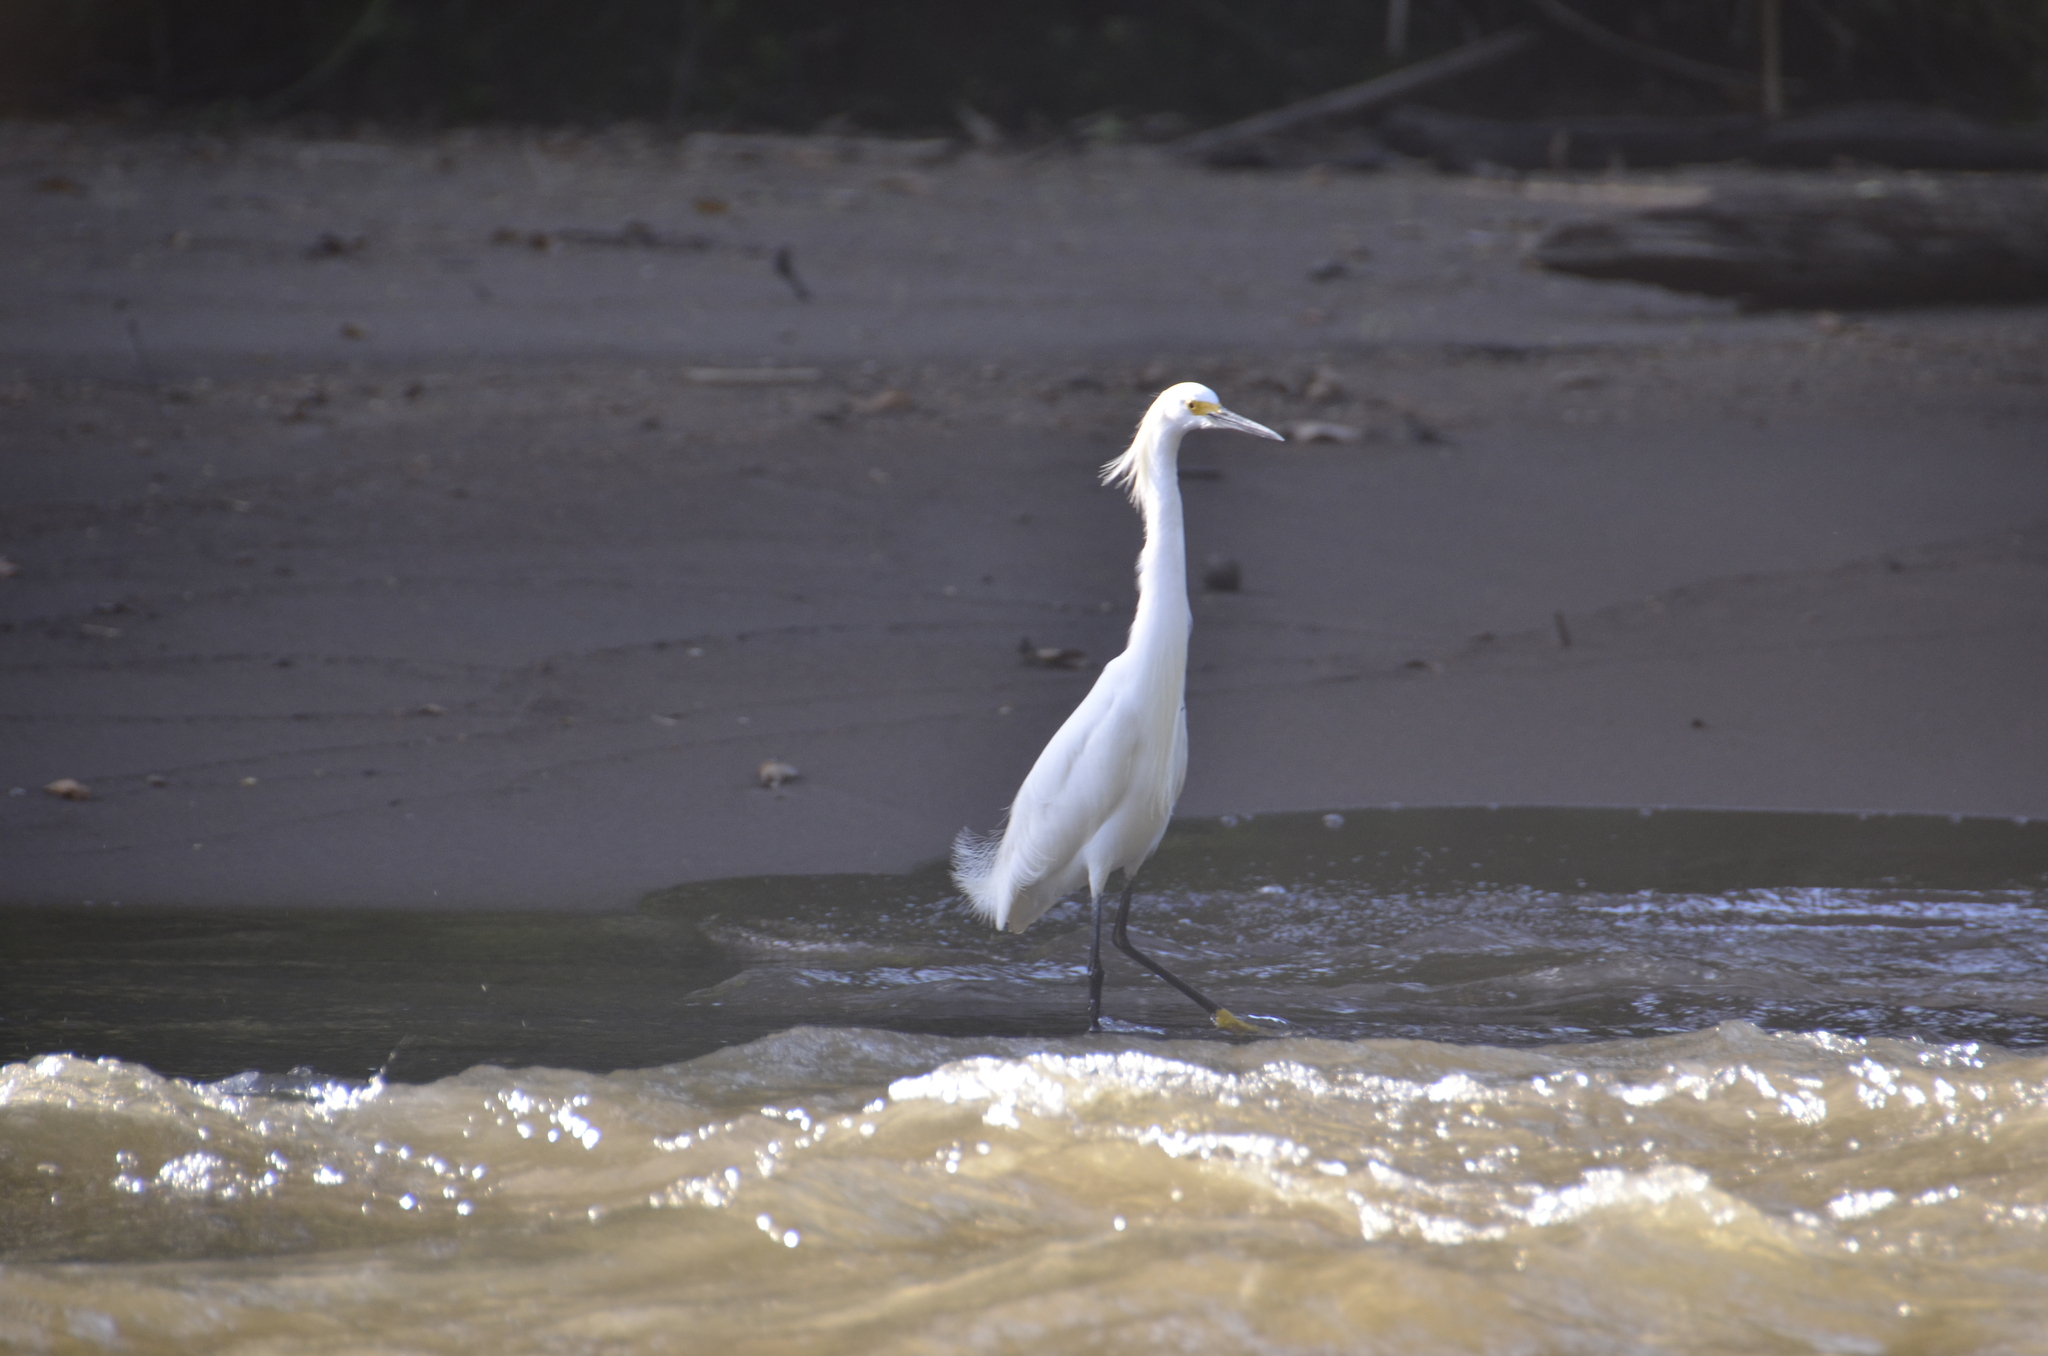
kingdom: Animalia
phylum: Chordata
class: Aves
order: Pelecaniformes
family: Ardeidae
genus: Egretta
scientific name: Egretta thula
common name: Snowy egret
